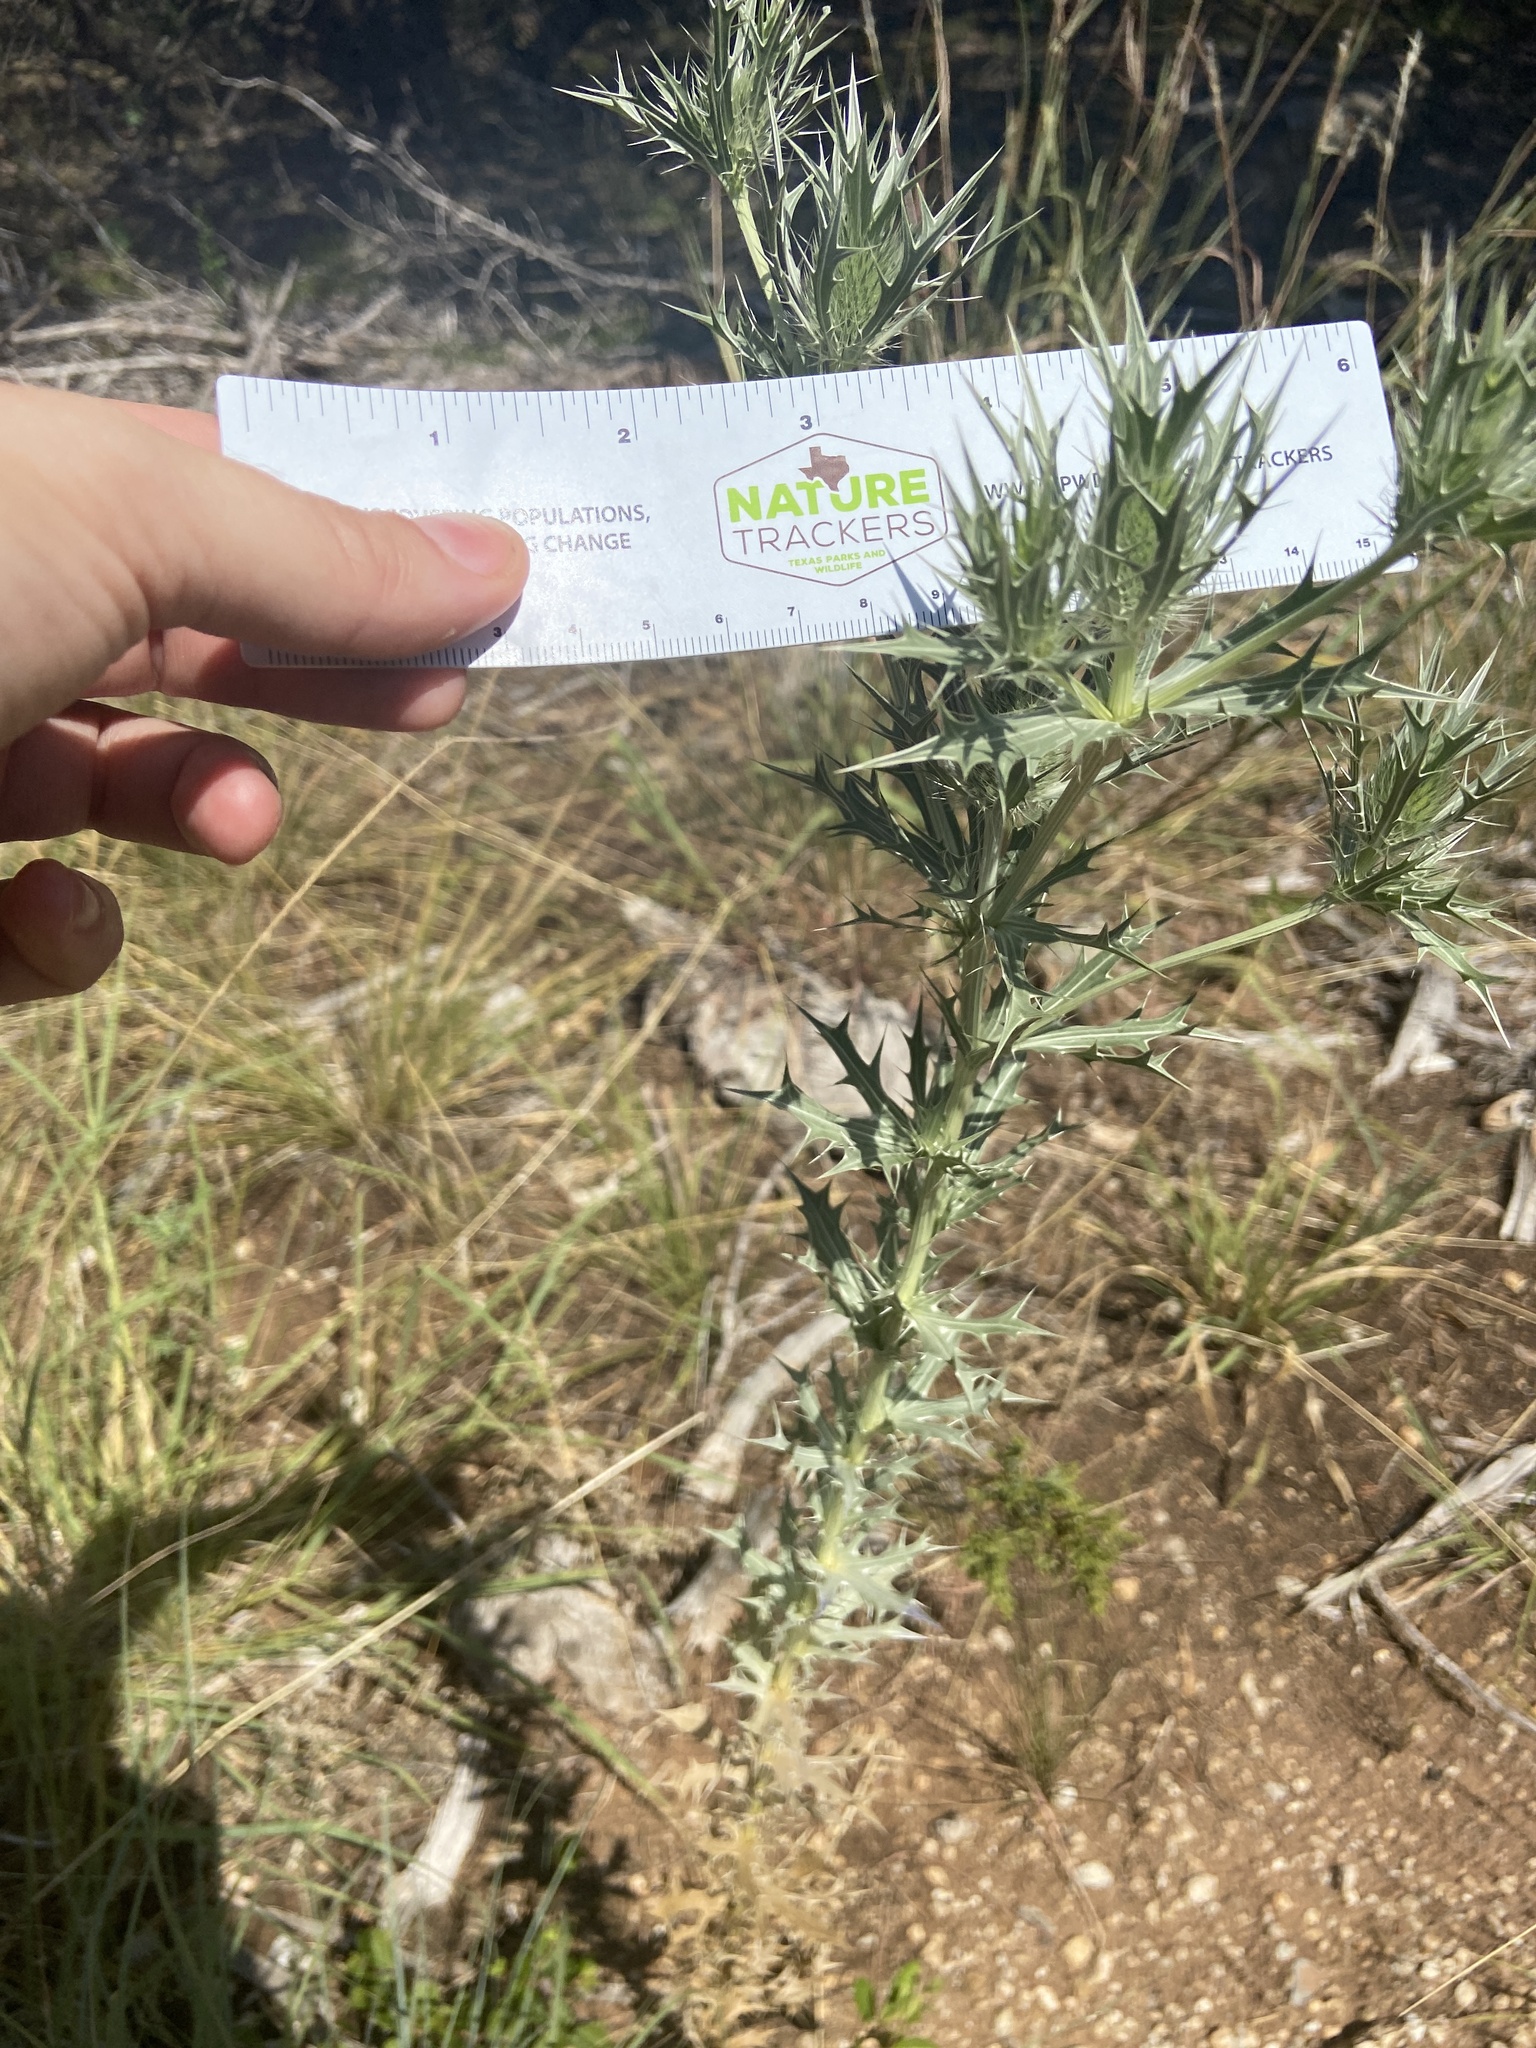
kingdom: Plantae
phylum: Tracheophyta
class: Magnoliopsida
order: Apiales
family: Apiaceae
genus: Eryngium
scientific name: Eryngium leavenworthii
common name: Leavenworth's eryngo
